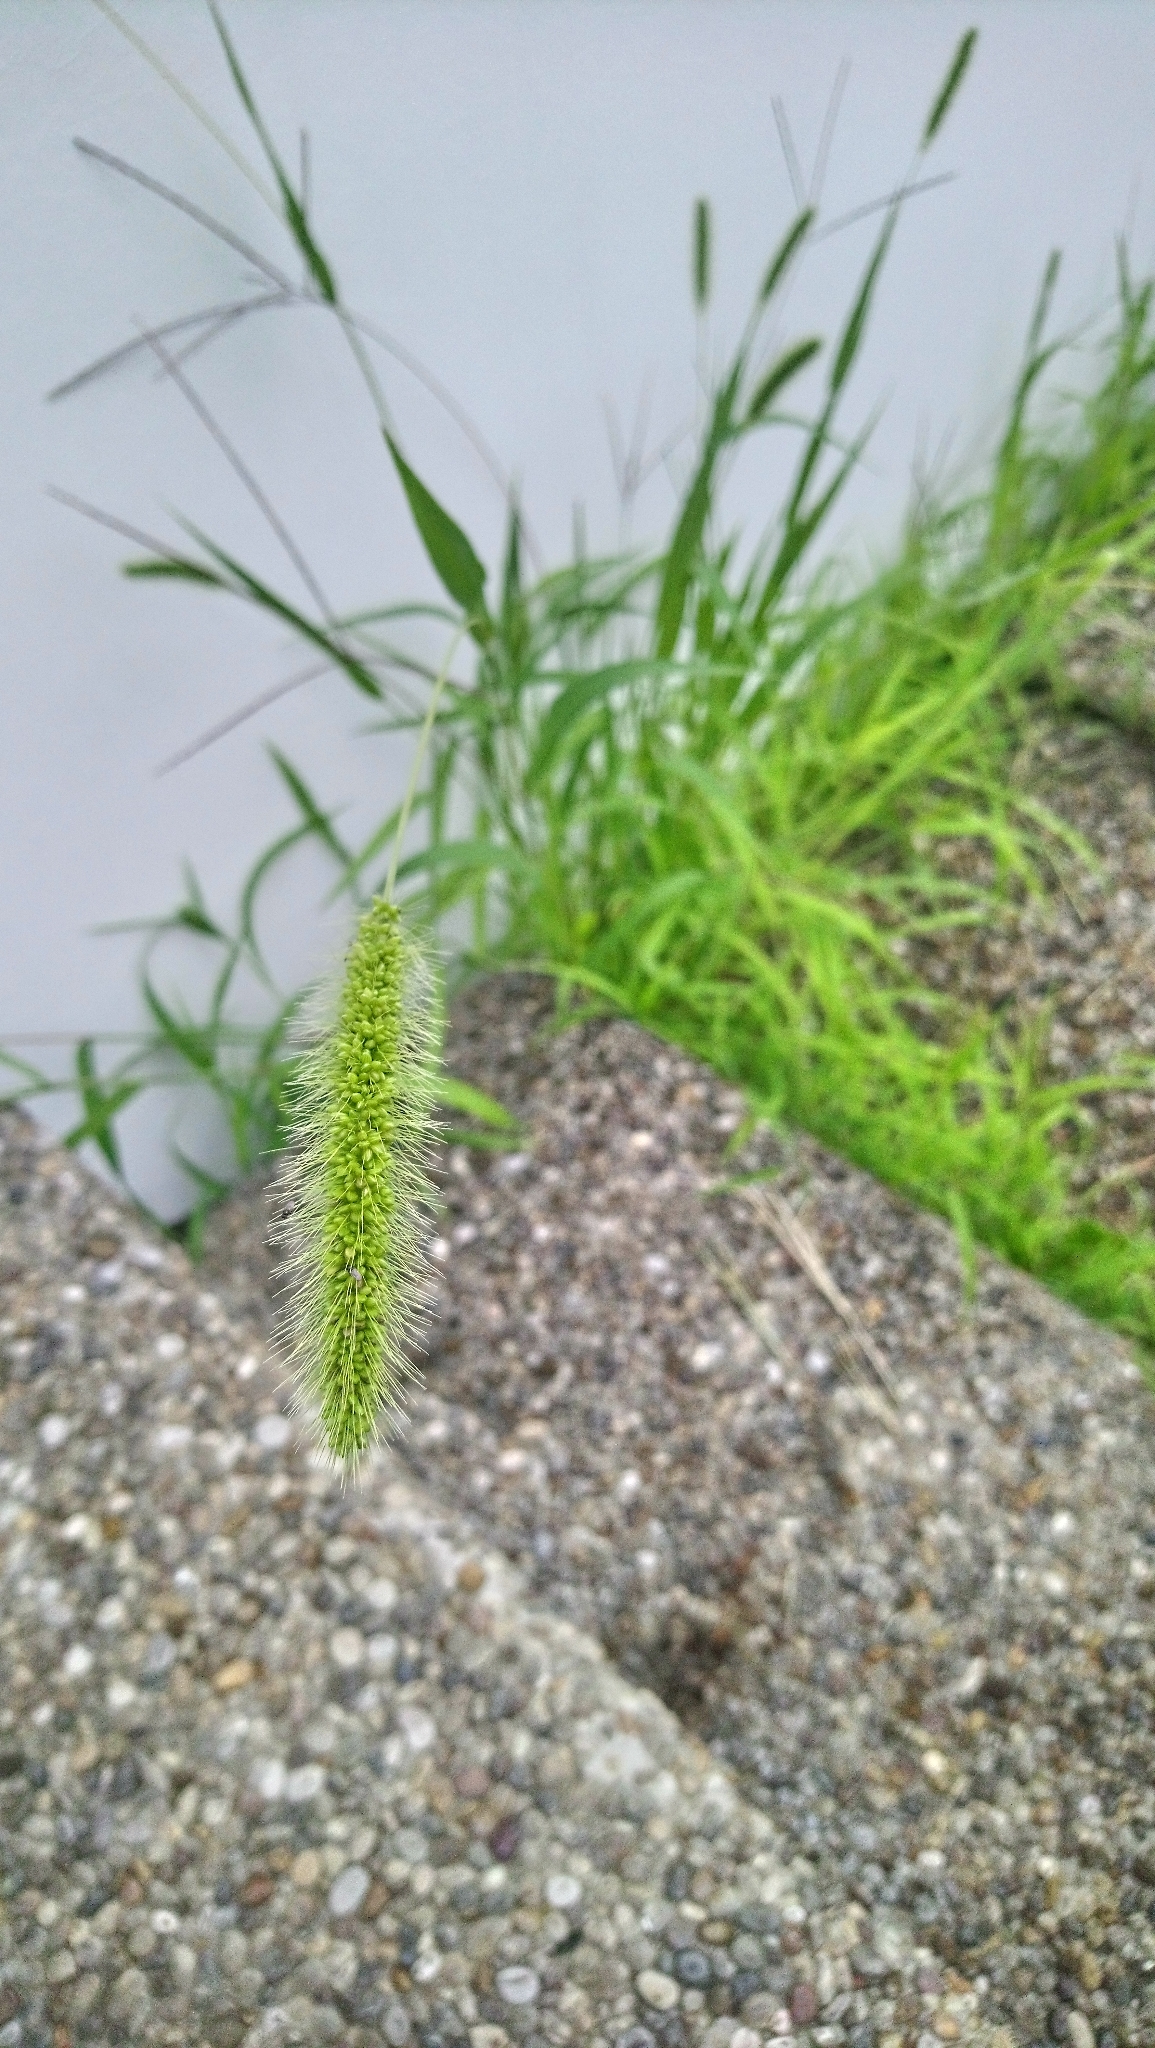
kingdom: Plantae
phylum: Tracheophyta
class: Liliopsida
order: Poales
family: Poaceae
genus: Setaria
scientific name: Setaria viridis
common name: Green bristlegrass
